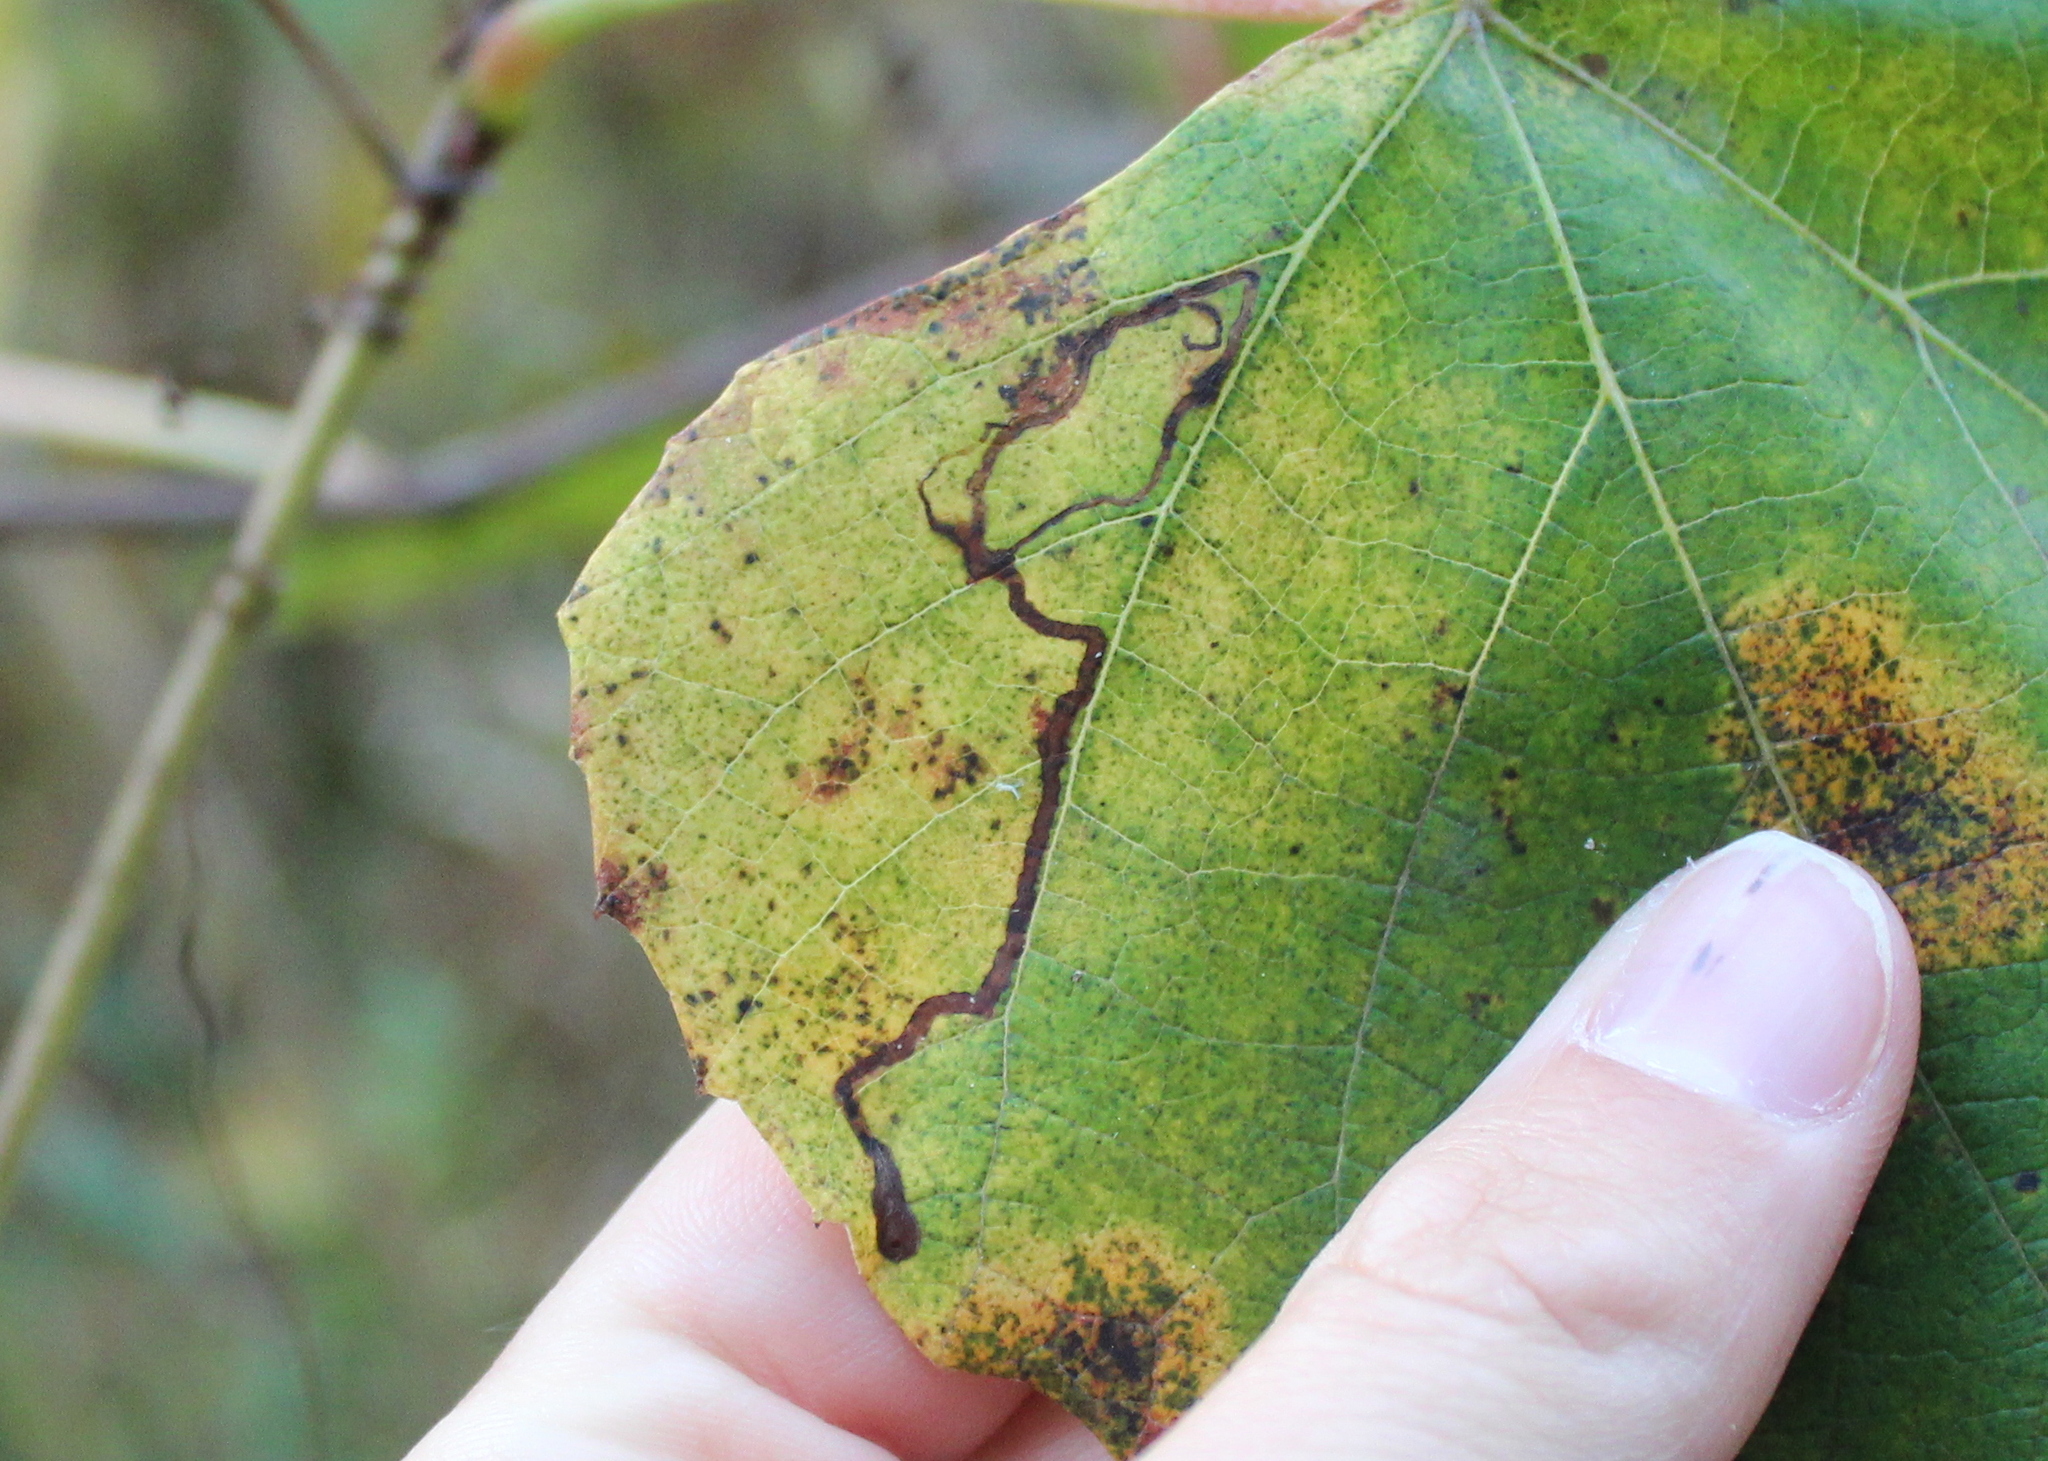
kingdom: Animalia
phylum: Arthropoda
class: Insecta
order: Lepidoptera
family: Gracillariidae
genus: Phyllocnistis
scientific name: Phyllocnistis vitifoliella
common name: Grape leaf-miner moth
